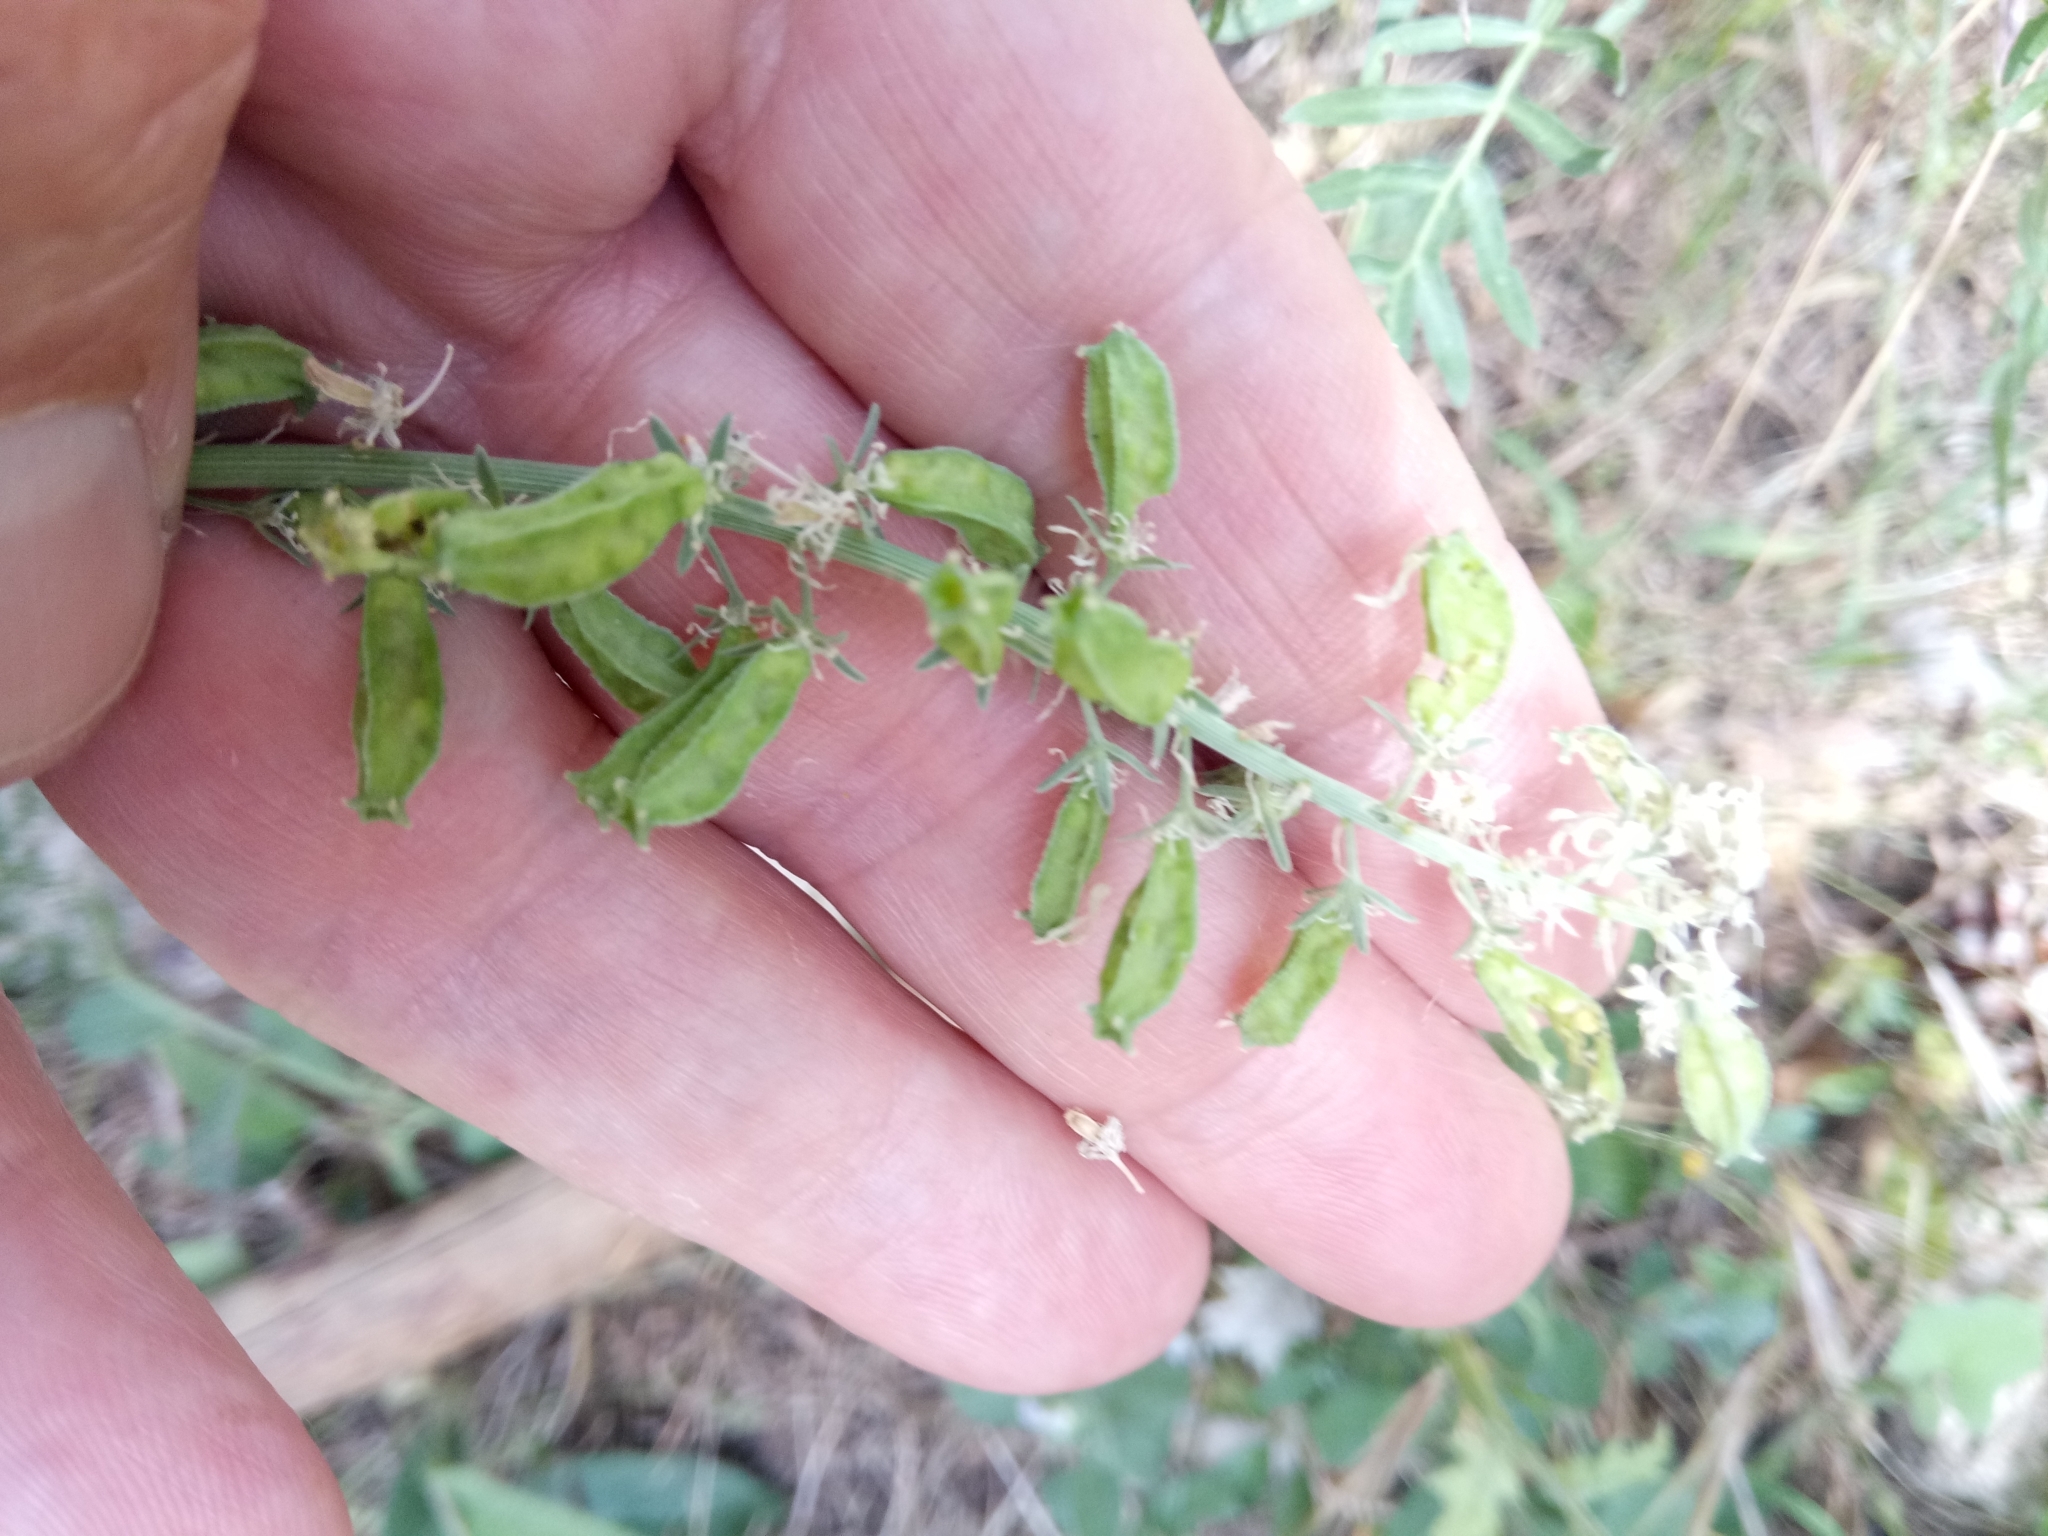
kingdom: Plantae
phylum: Tracheophyta
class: Magnoliopsida
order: Brassicales
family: Resedaceae
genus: Reseda
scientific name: Reseda alba
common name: White mignonette
